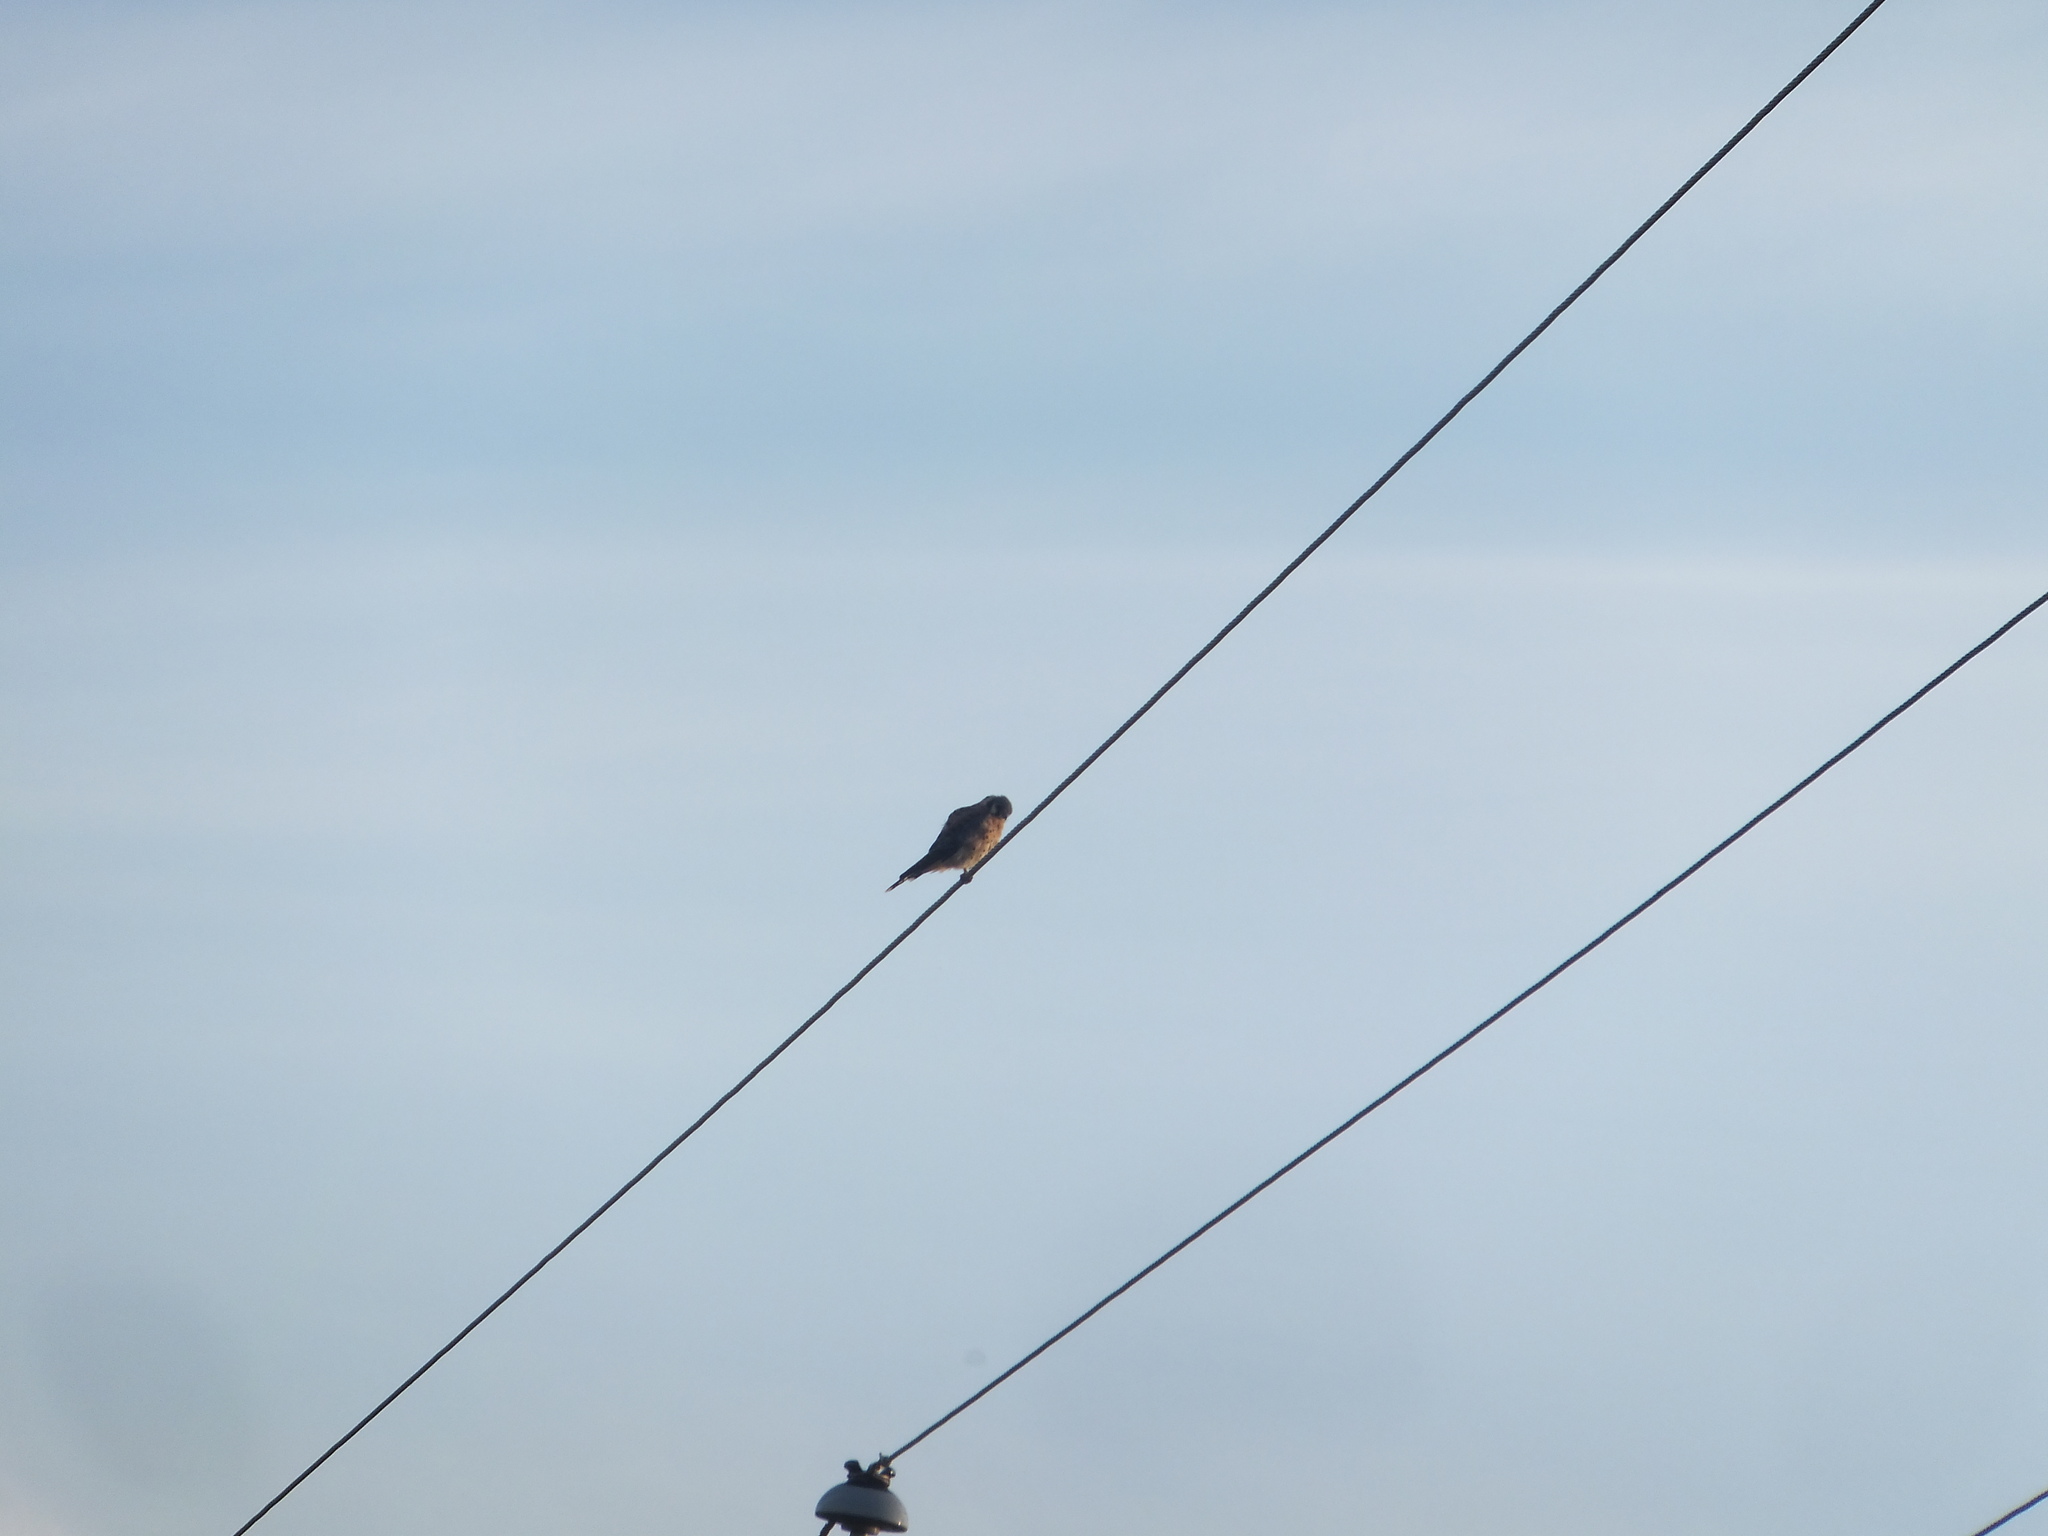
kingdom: Animalia
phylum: Chordata
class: Aves
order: Falconiformes
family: Falconidae
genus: Falco
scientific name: Falco sparverius
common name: American kestrel
